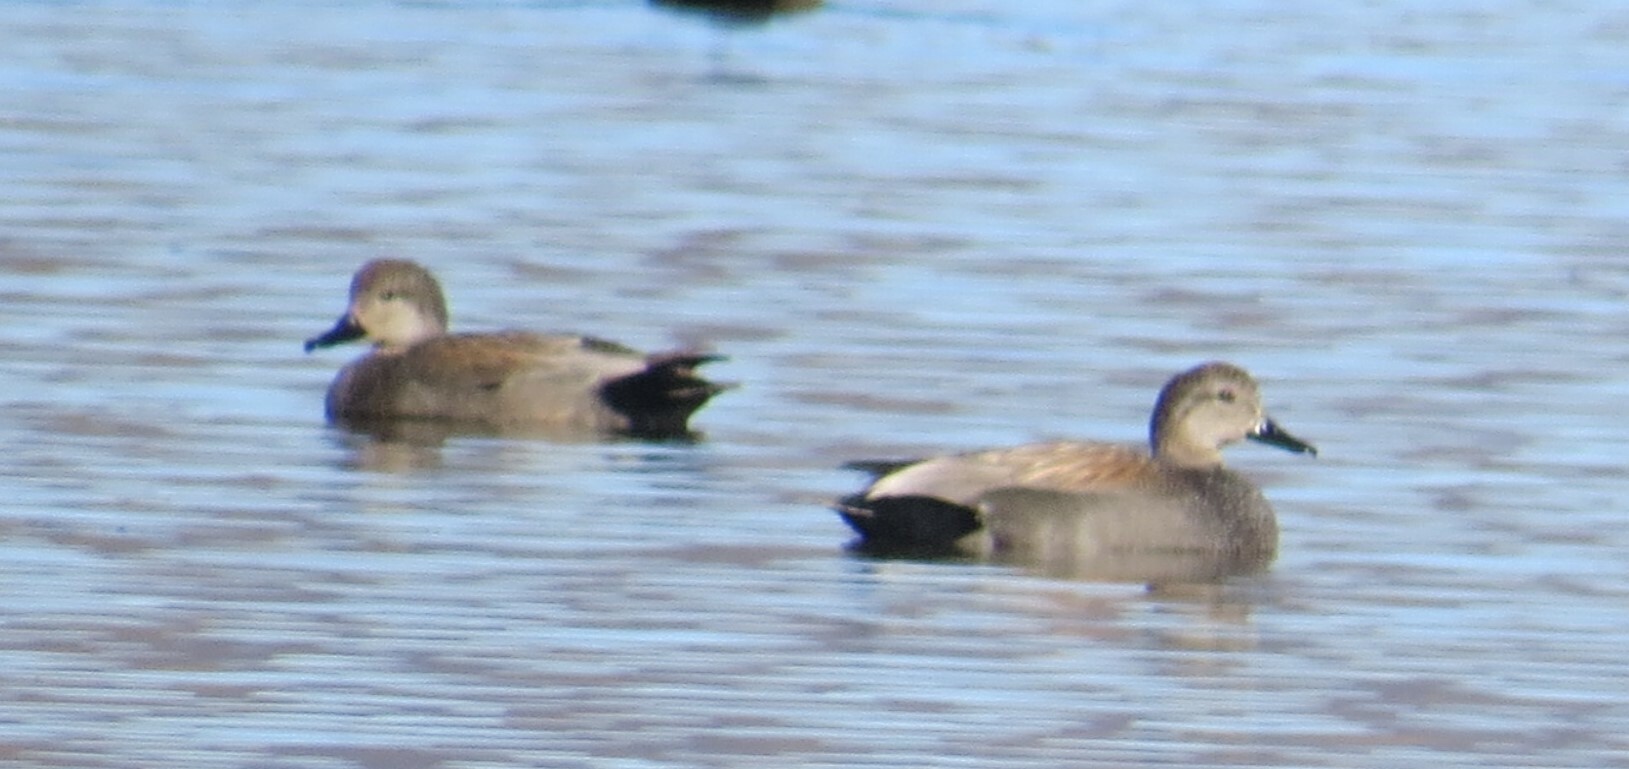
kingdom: Animalia
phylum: Chordata
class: Aves
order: Anseriformes
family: Anatidae
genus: Mareca
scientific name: Mareca strepera
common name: Gadwall
